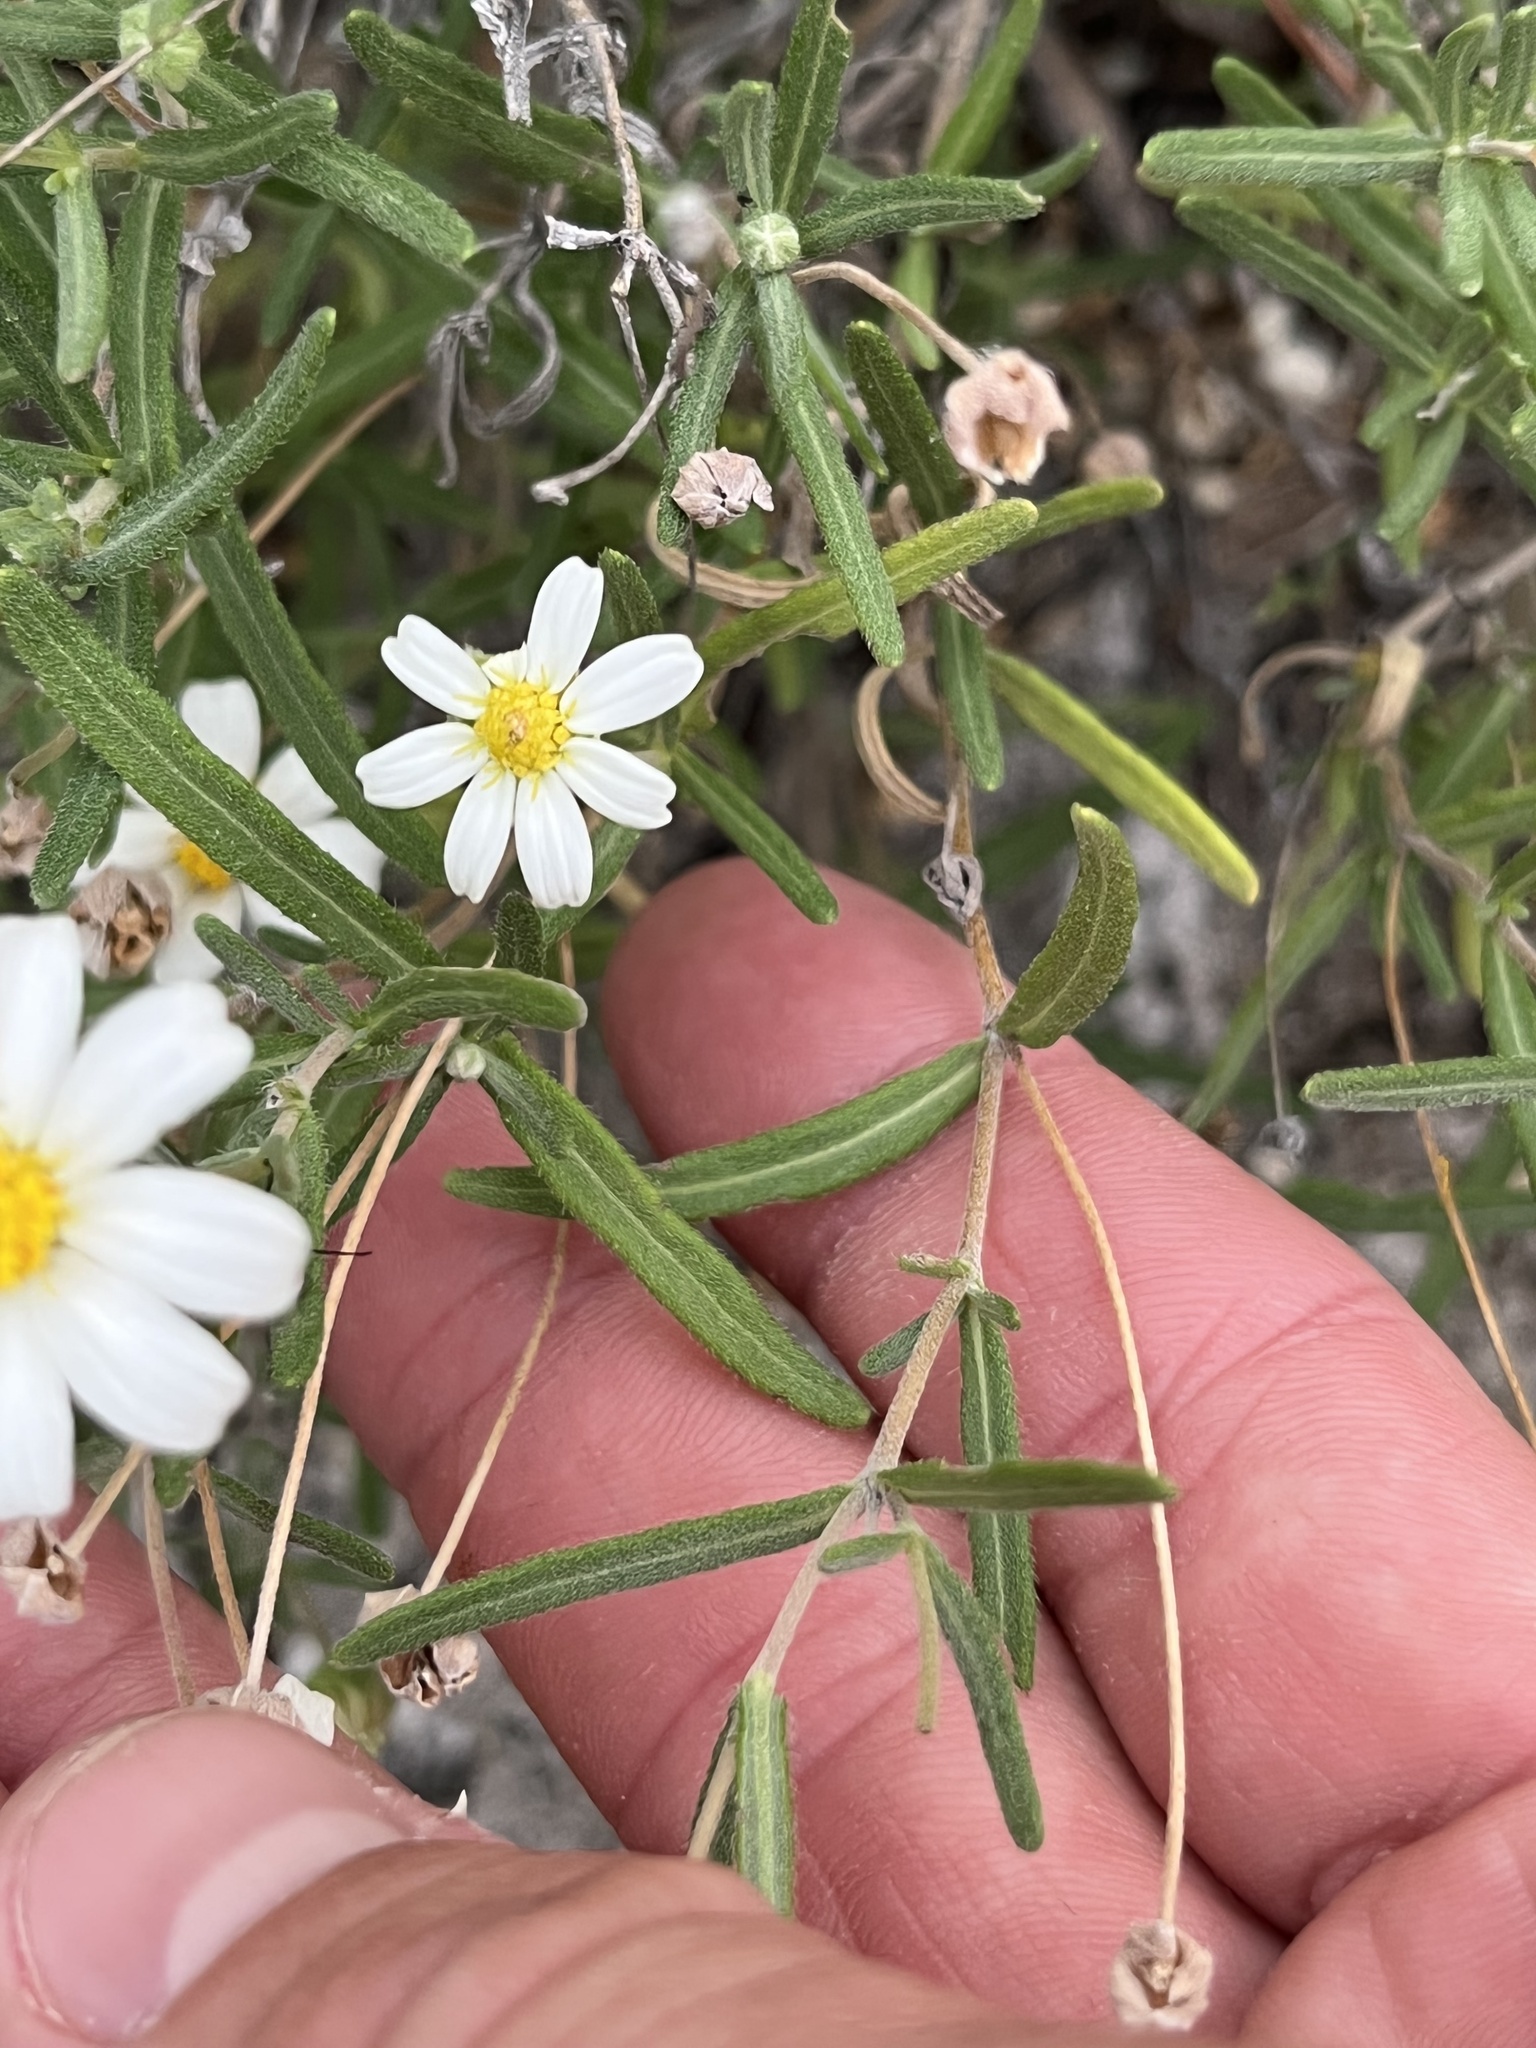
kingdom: Plantae
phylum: Tracheophyta
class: Magnoliopsida
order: Asterales
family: Asteraceae
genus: Melampodium
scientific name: Melampodium leucanthum
